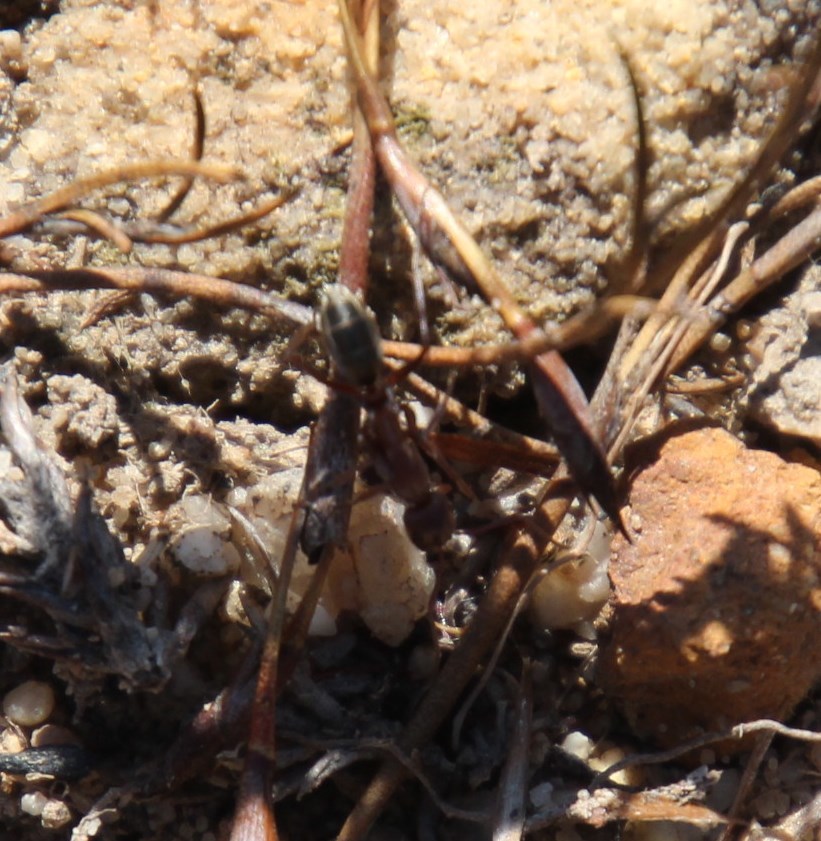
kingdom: Animalia
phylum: Arthropoda
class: Insecta
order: Hymenoptera
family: Formicidae
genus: Camponotus
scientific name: Camponotus vestitus
